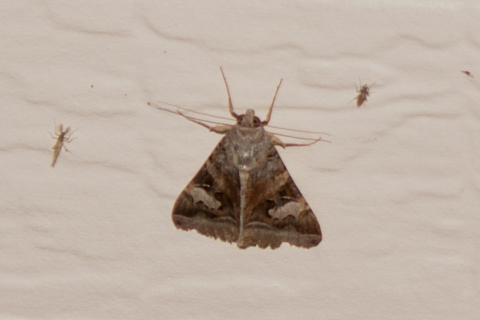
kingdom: Animalia
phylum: Arthropoda
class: Insecta
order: Lepidoptera
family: Erebidae
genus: Melipotis
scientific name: Melipotis indomita
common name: Moth
